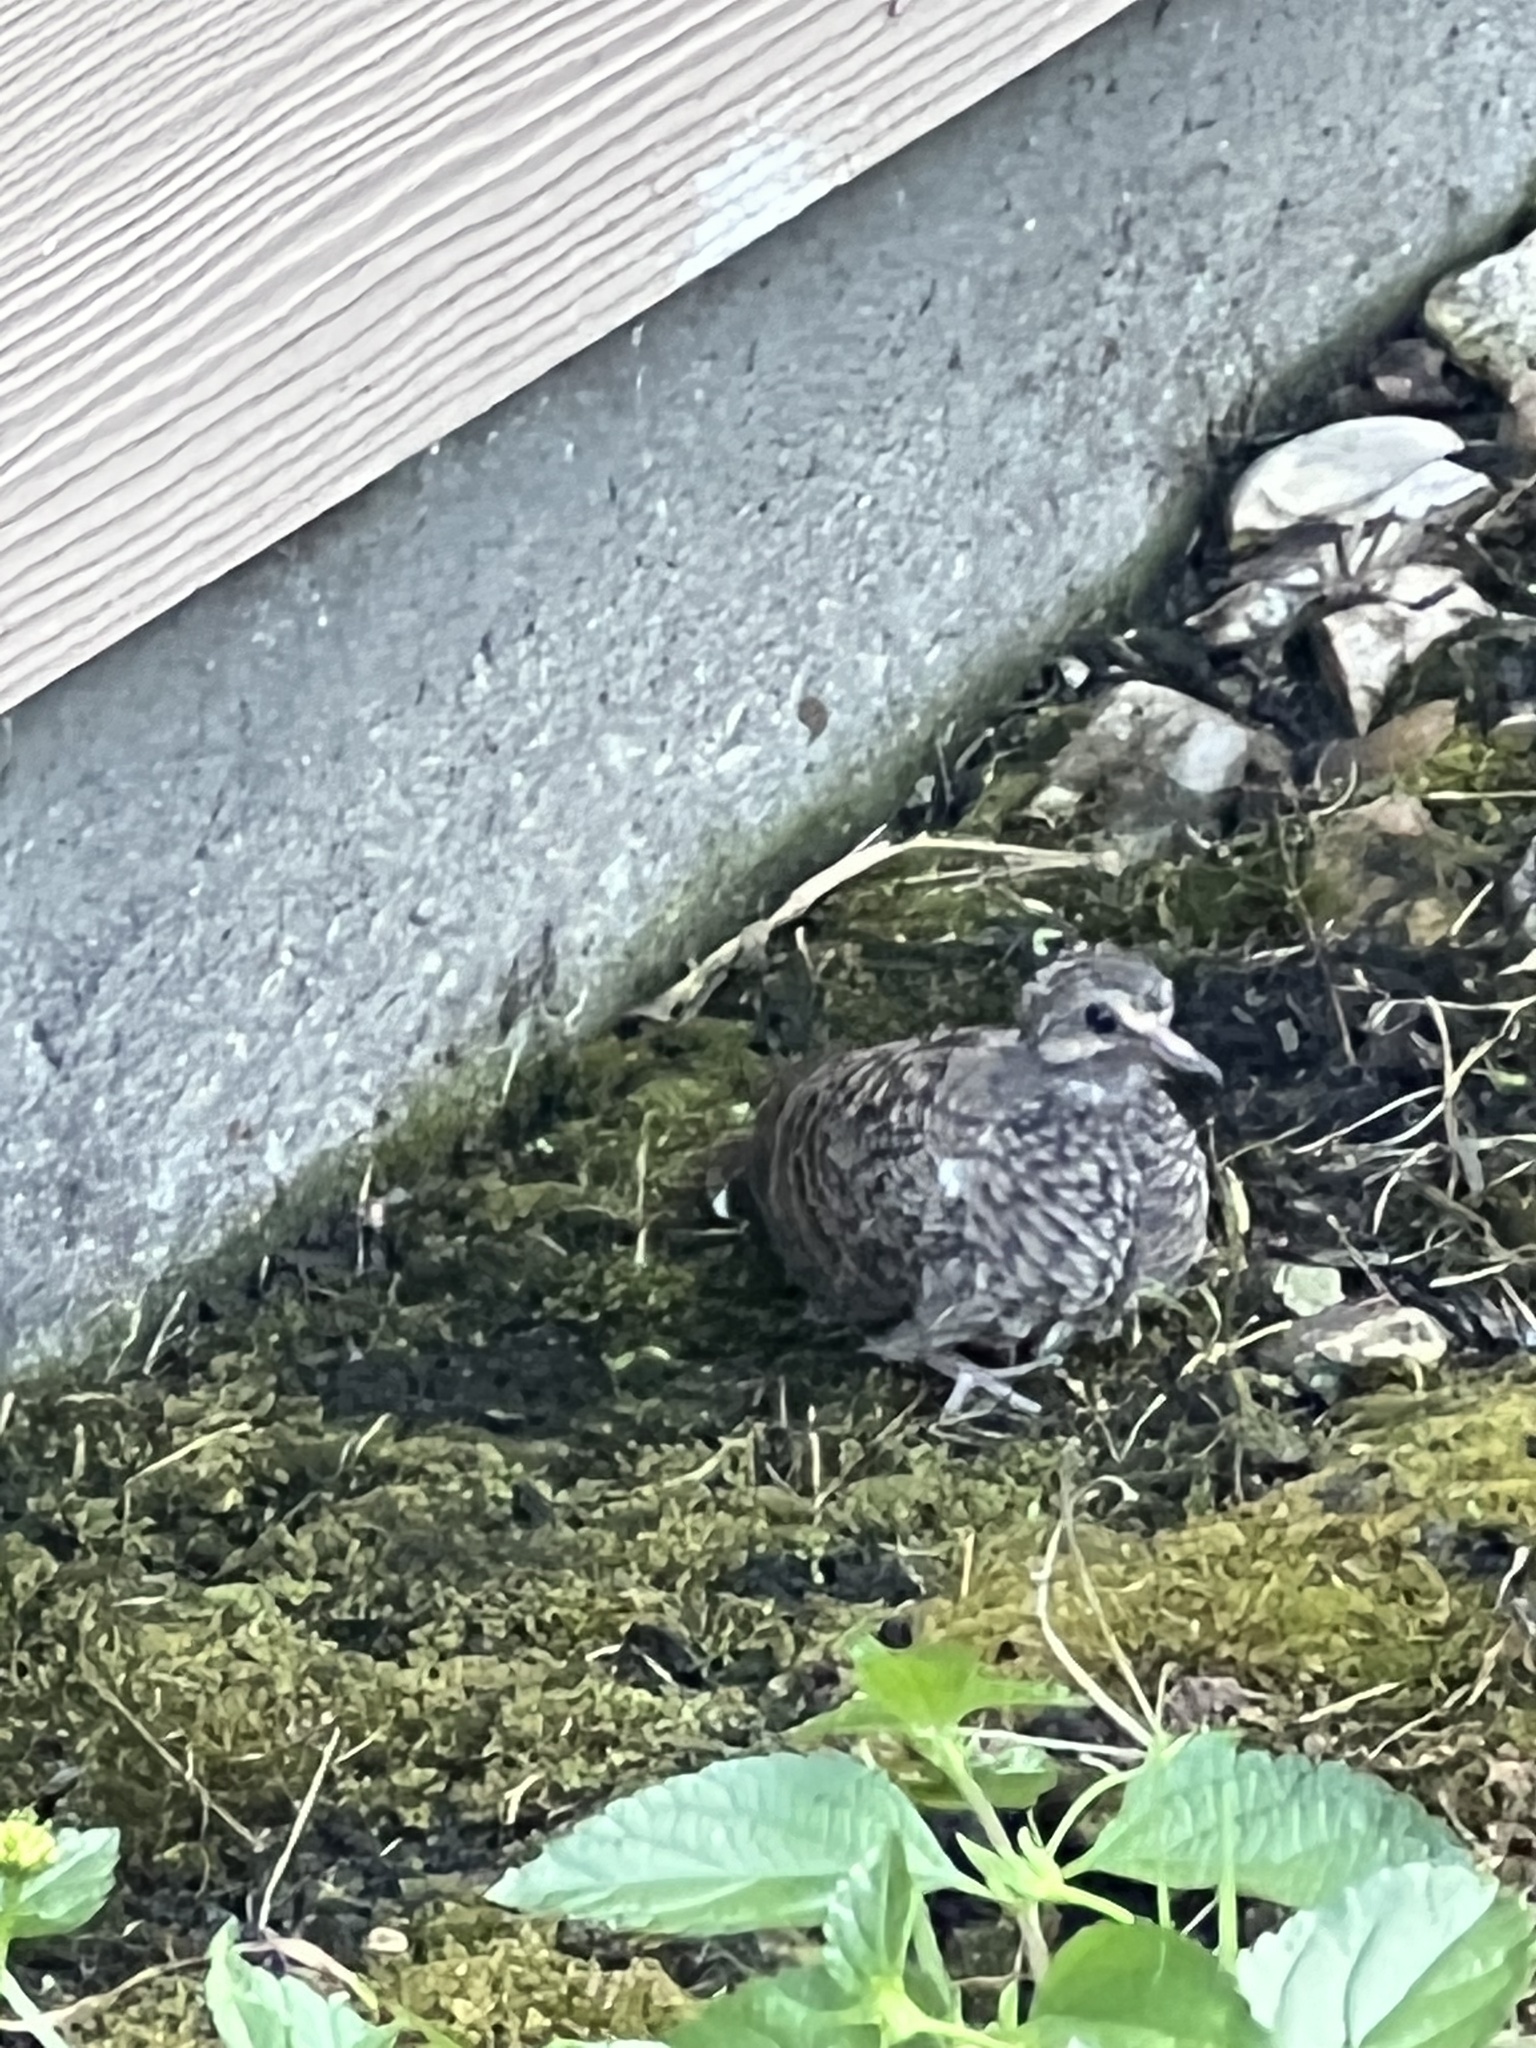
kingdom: Animalia
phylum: Chordata
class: Aves
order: Columbiformes
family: Columbidae
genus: Columbina
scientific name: Columbina inca
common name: Inca dove
